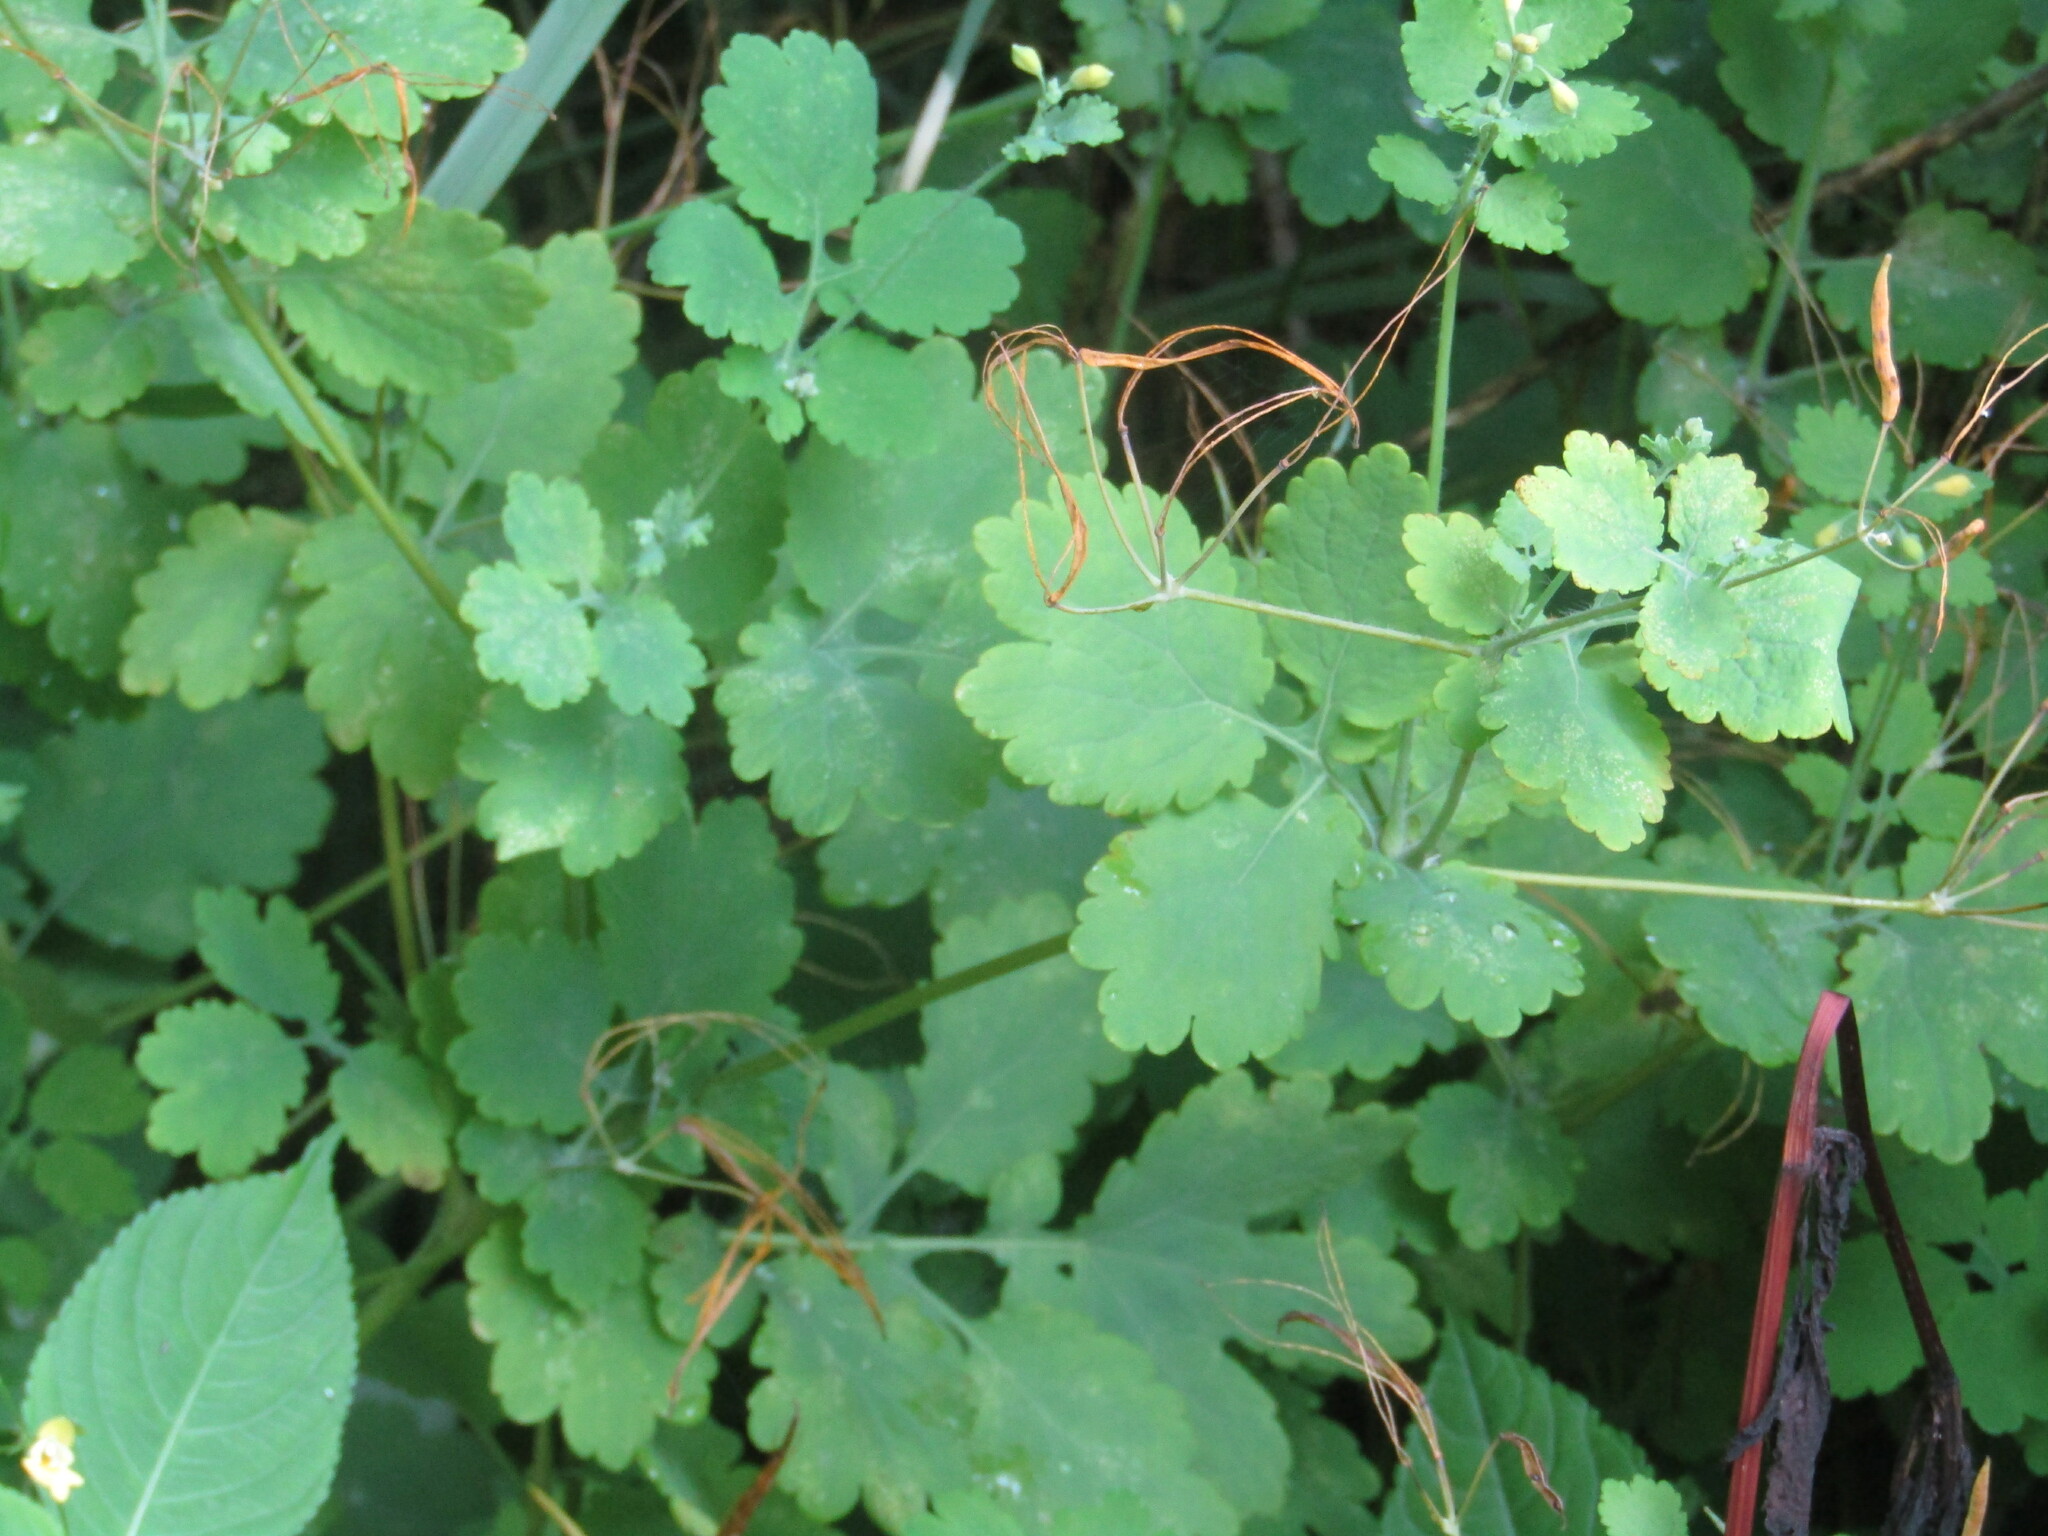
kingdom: Plantae
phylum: Tracheophyta
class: Magnoliopsida
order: Ranunculales
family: Papaveraceae
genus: Chelidonium
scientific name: Chelidonium majus
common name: Greater celandine
